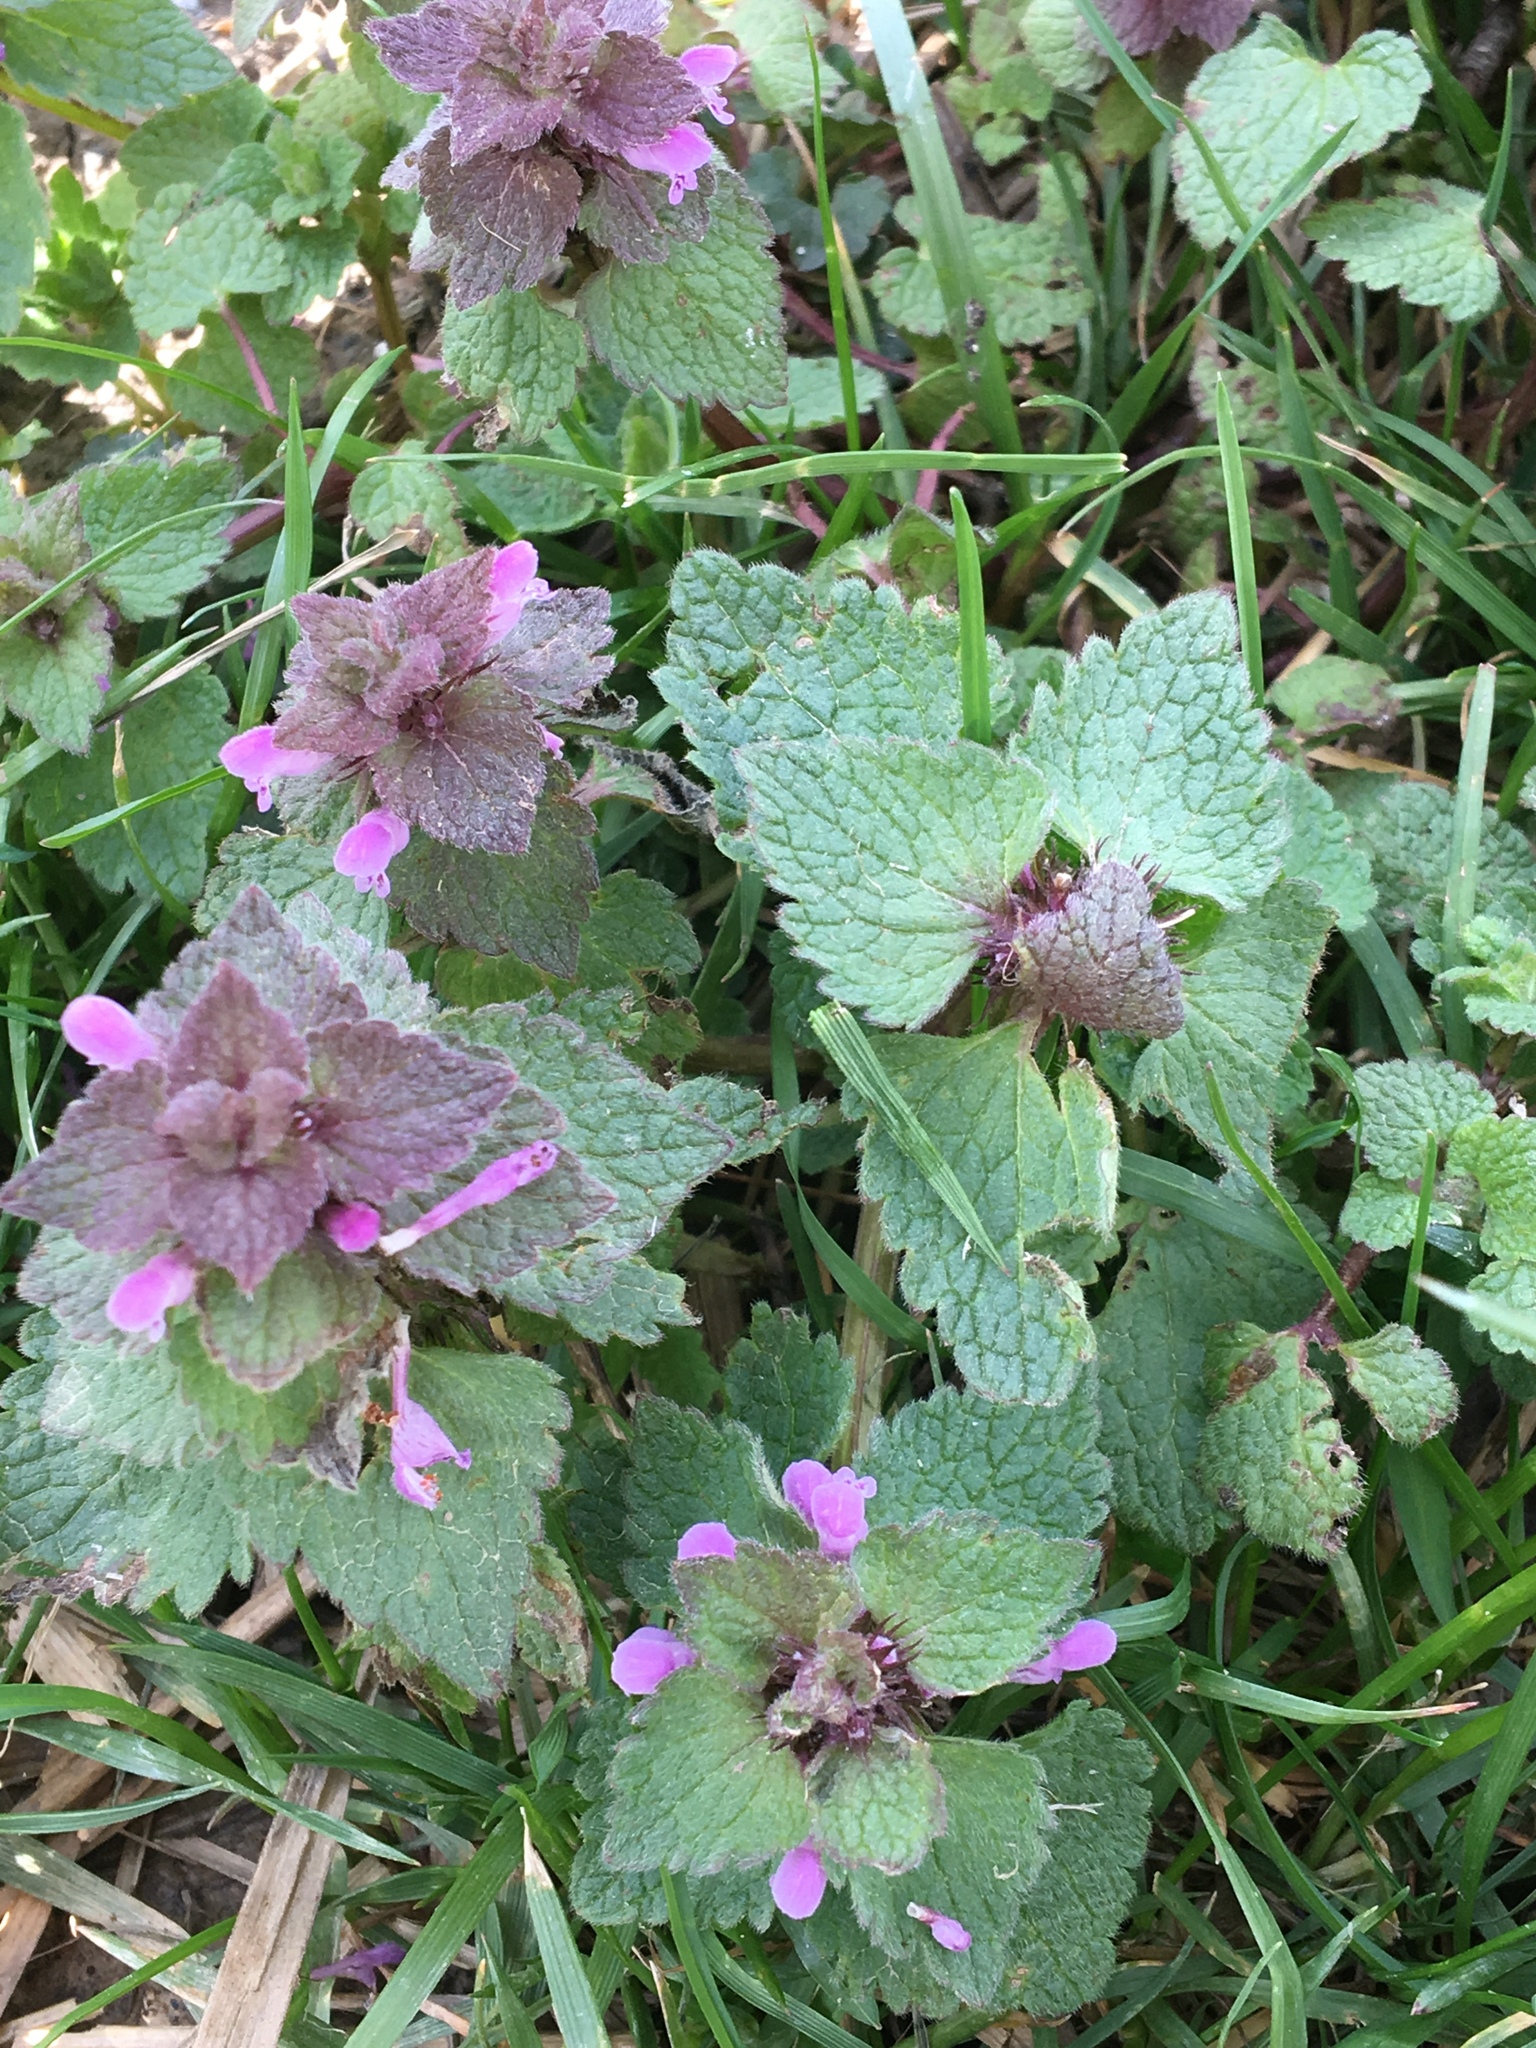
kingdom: Plantae
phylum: Tracheophyta
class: Magnoliopsida
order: Lamiales
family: Lamiaceae
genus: Lamium
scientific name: Lamium purpureum
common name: Red dead-nettle
